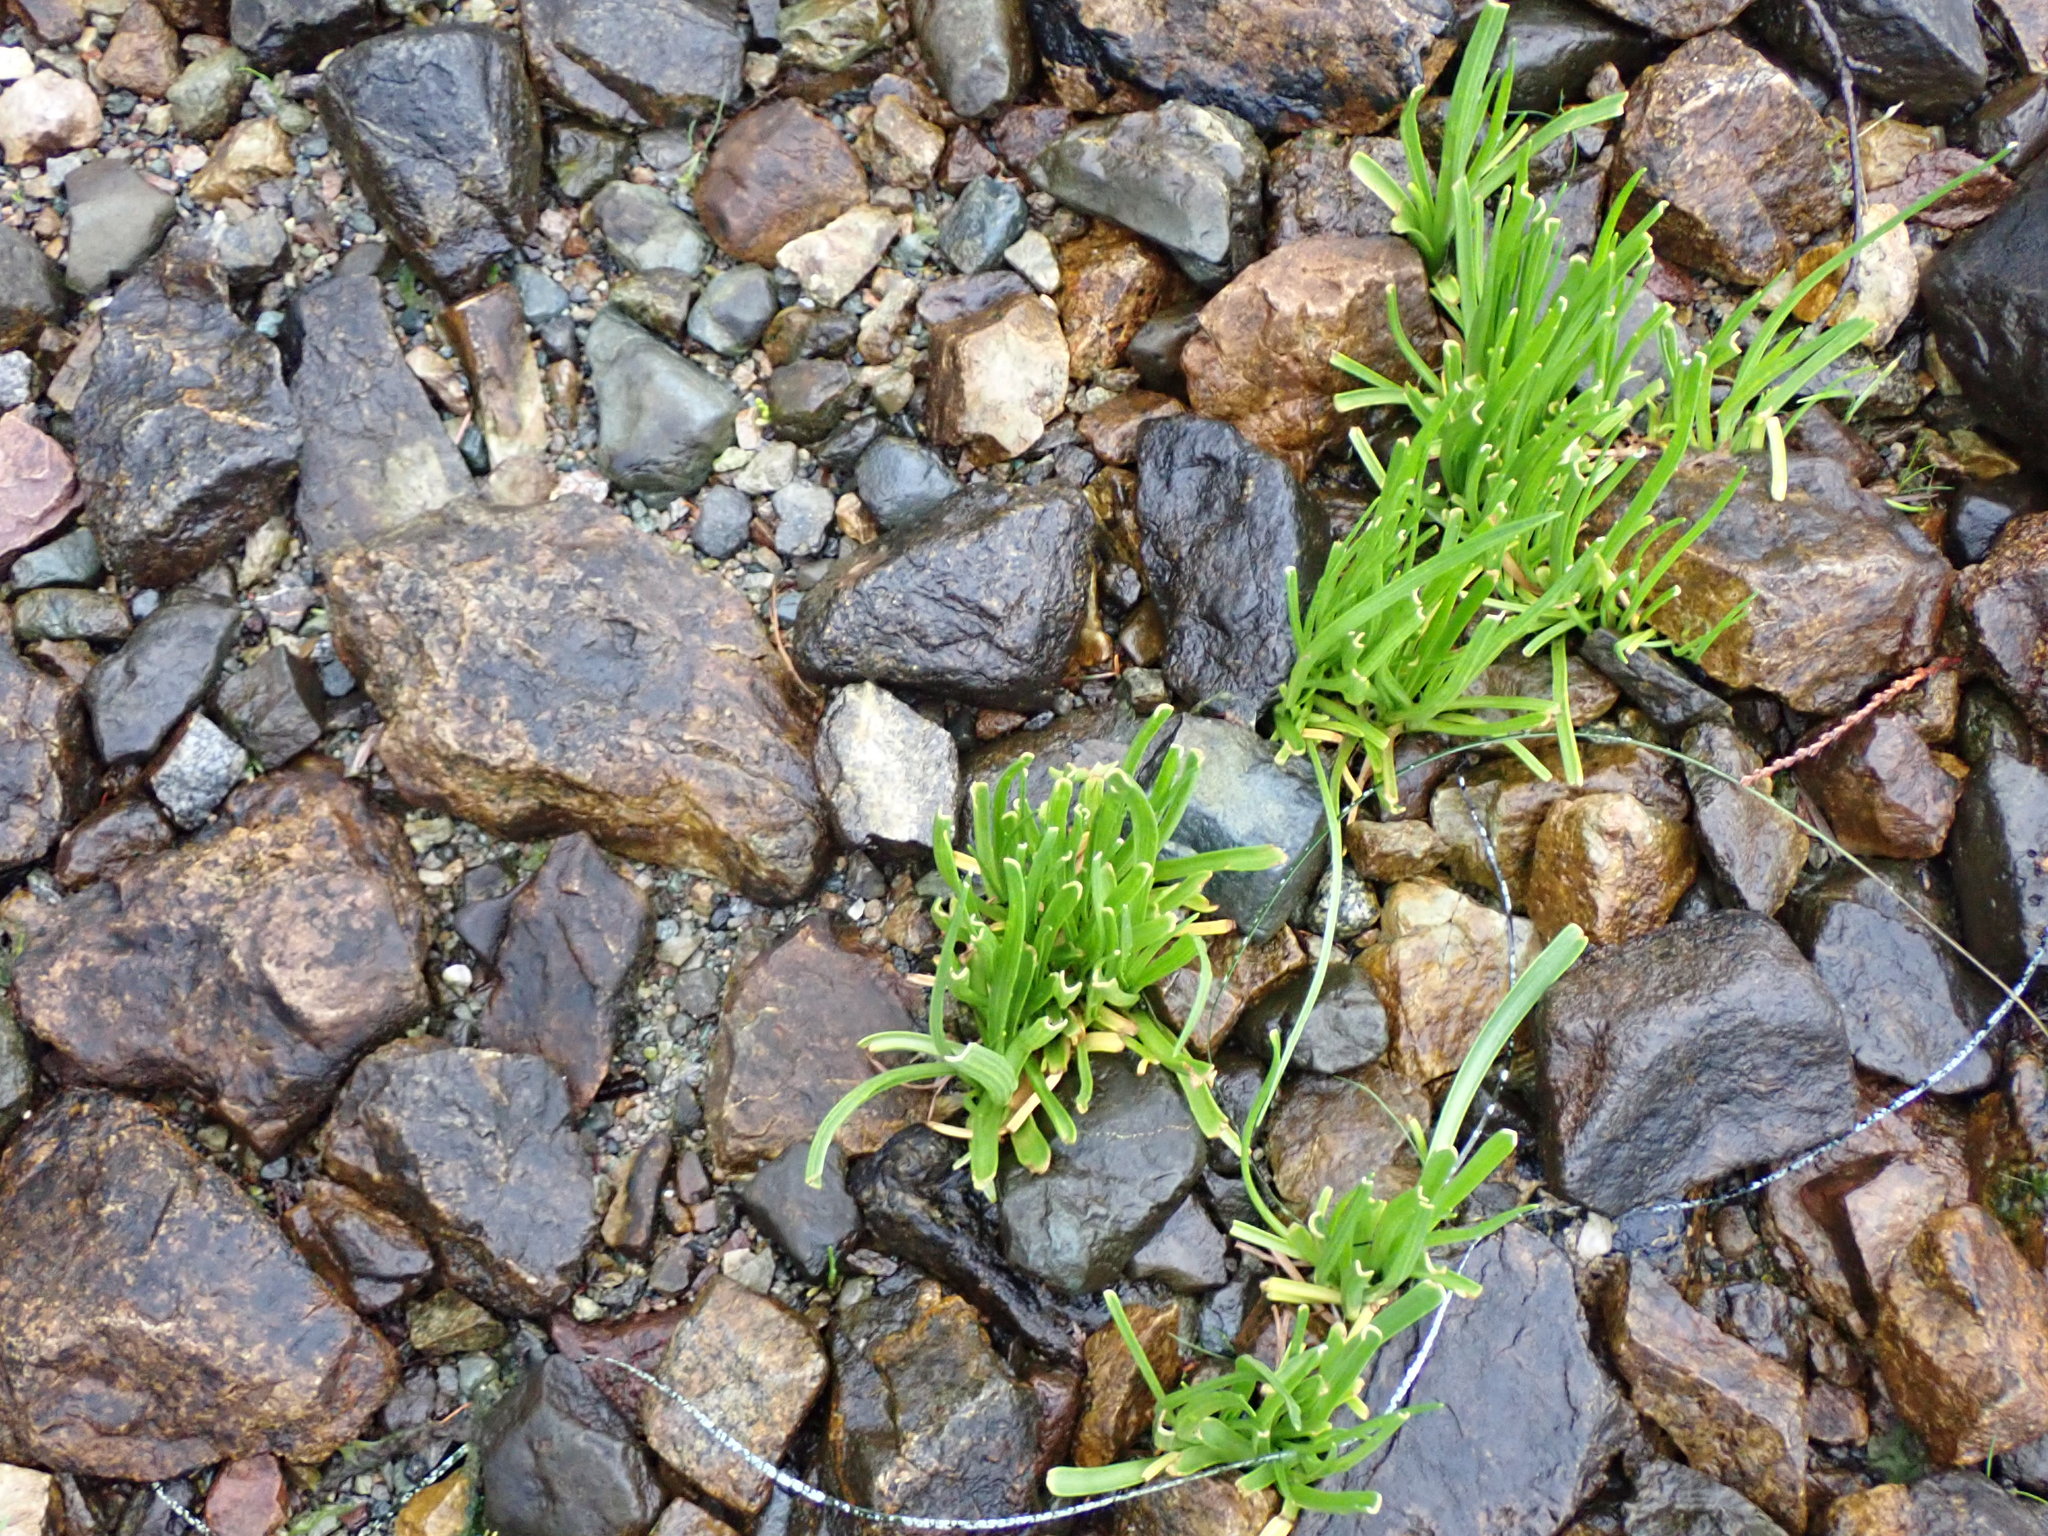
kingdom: Plantae
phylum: Tracheophyta
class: Magnoliopsida
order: Lamiales
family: Plantaginaceae
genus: Plantago
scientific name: Plantago maritima
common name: Sea plantain
